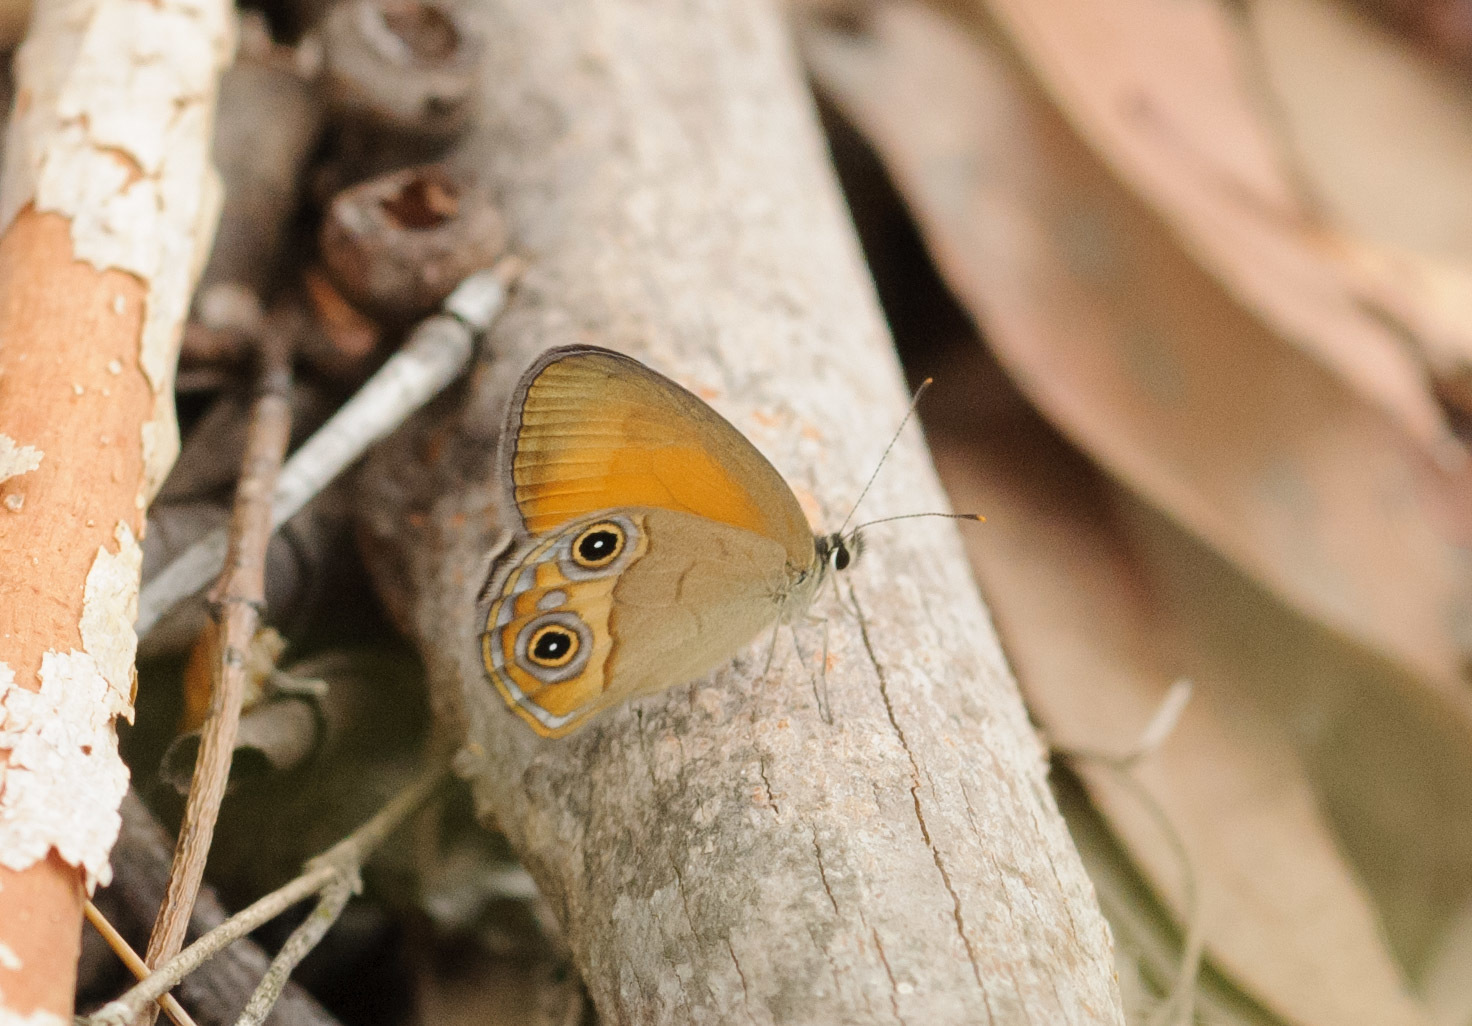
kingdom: Animalia
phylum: Arthropoda
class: Insecta
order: Lepidoptera
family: Nymphalidae
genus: Hypocysta
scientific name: Hypocysta metirius
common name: Brown ringlet
